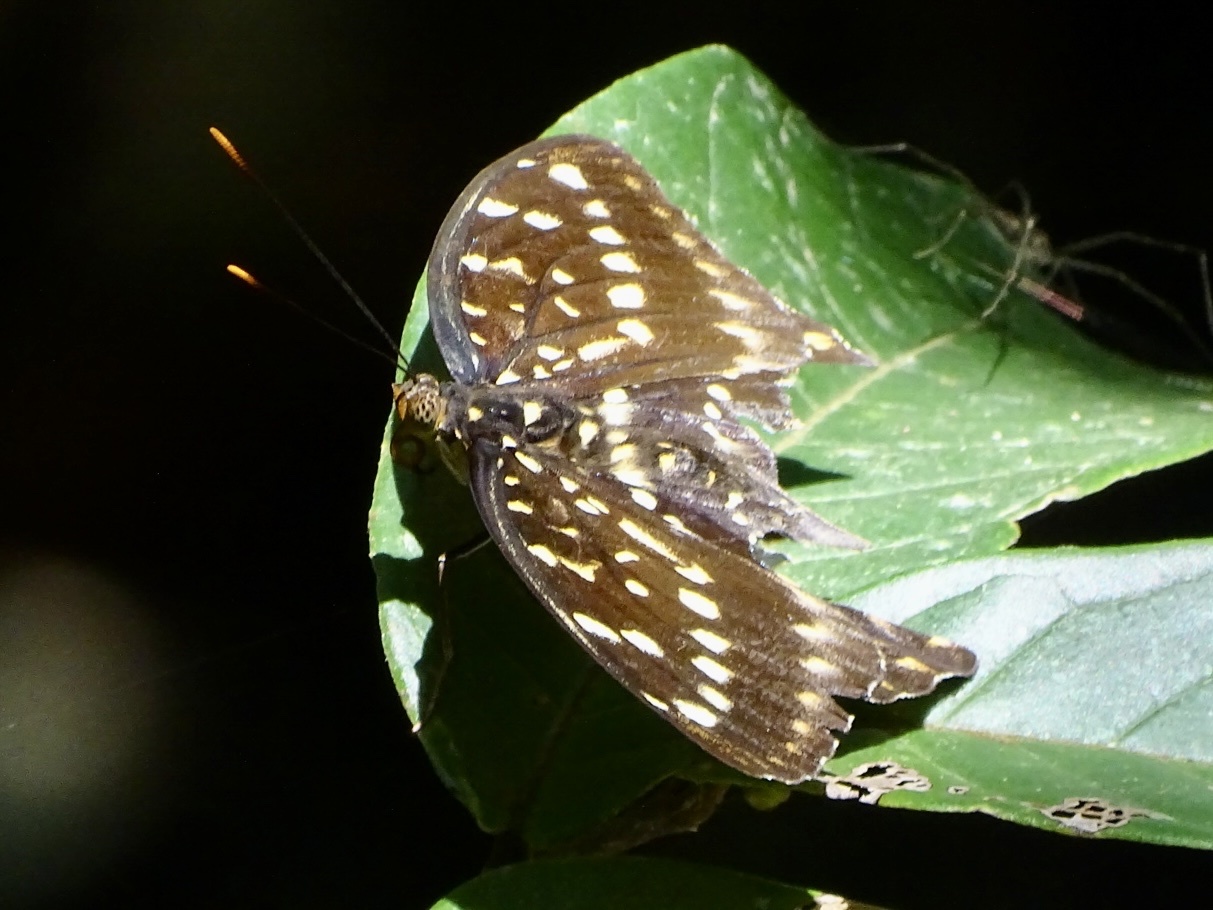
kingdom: Animalia
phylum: Arthropoda
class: Insecta
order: Lepidoptera
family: Nymphalidae
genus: Lexias
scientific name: Lexias pardalis
